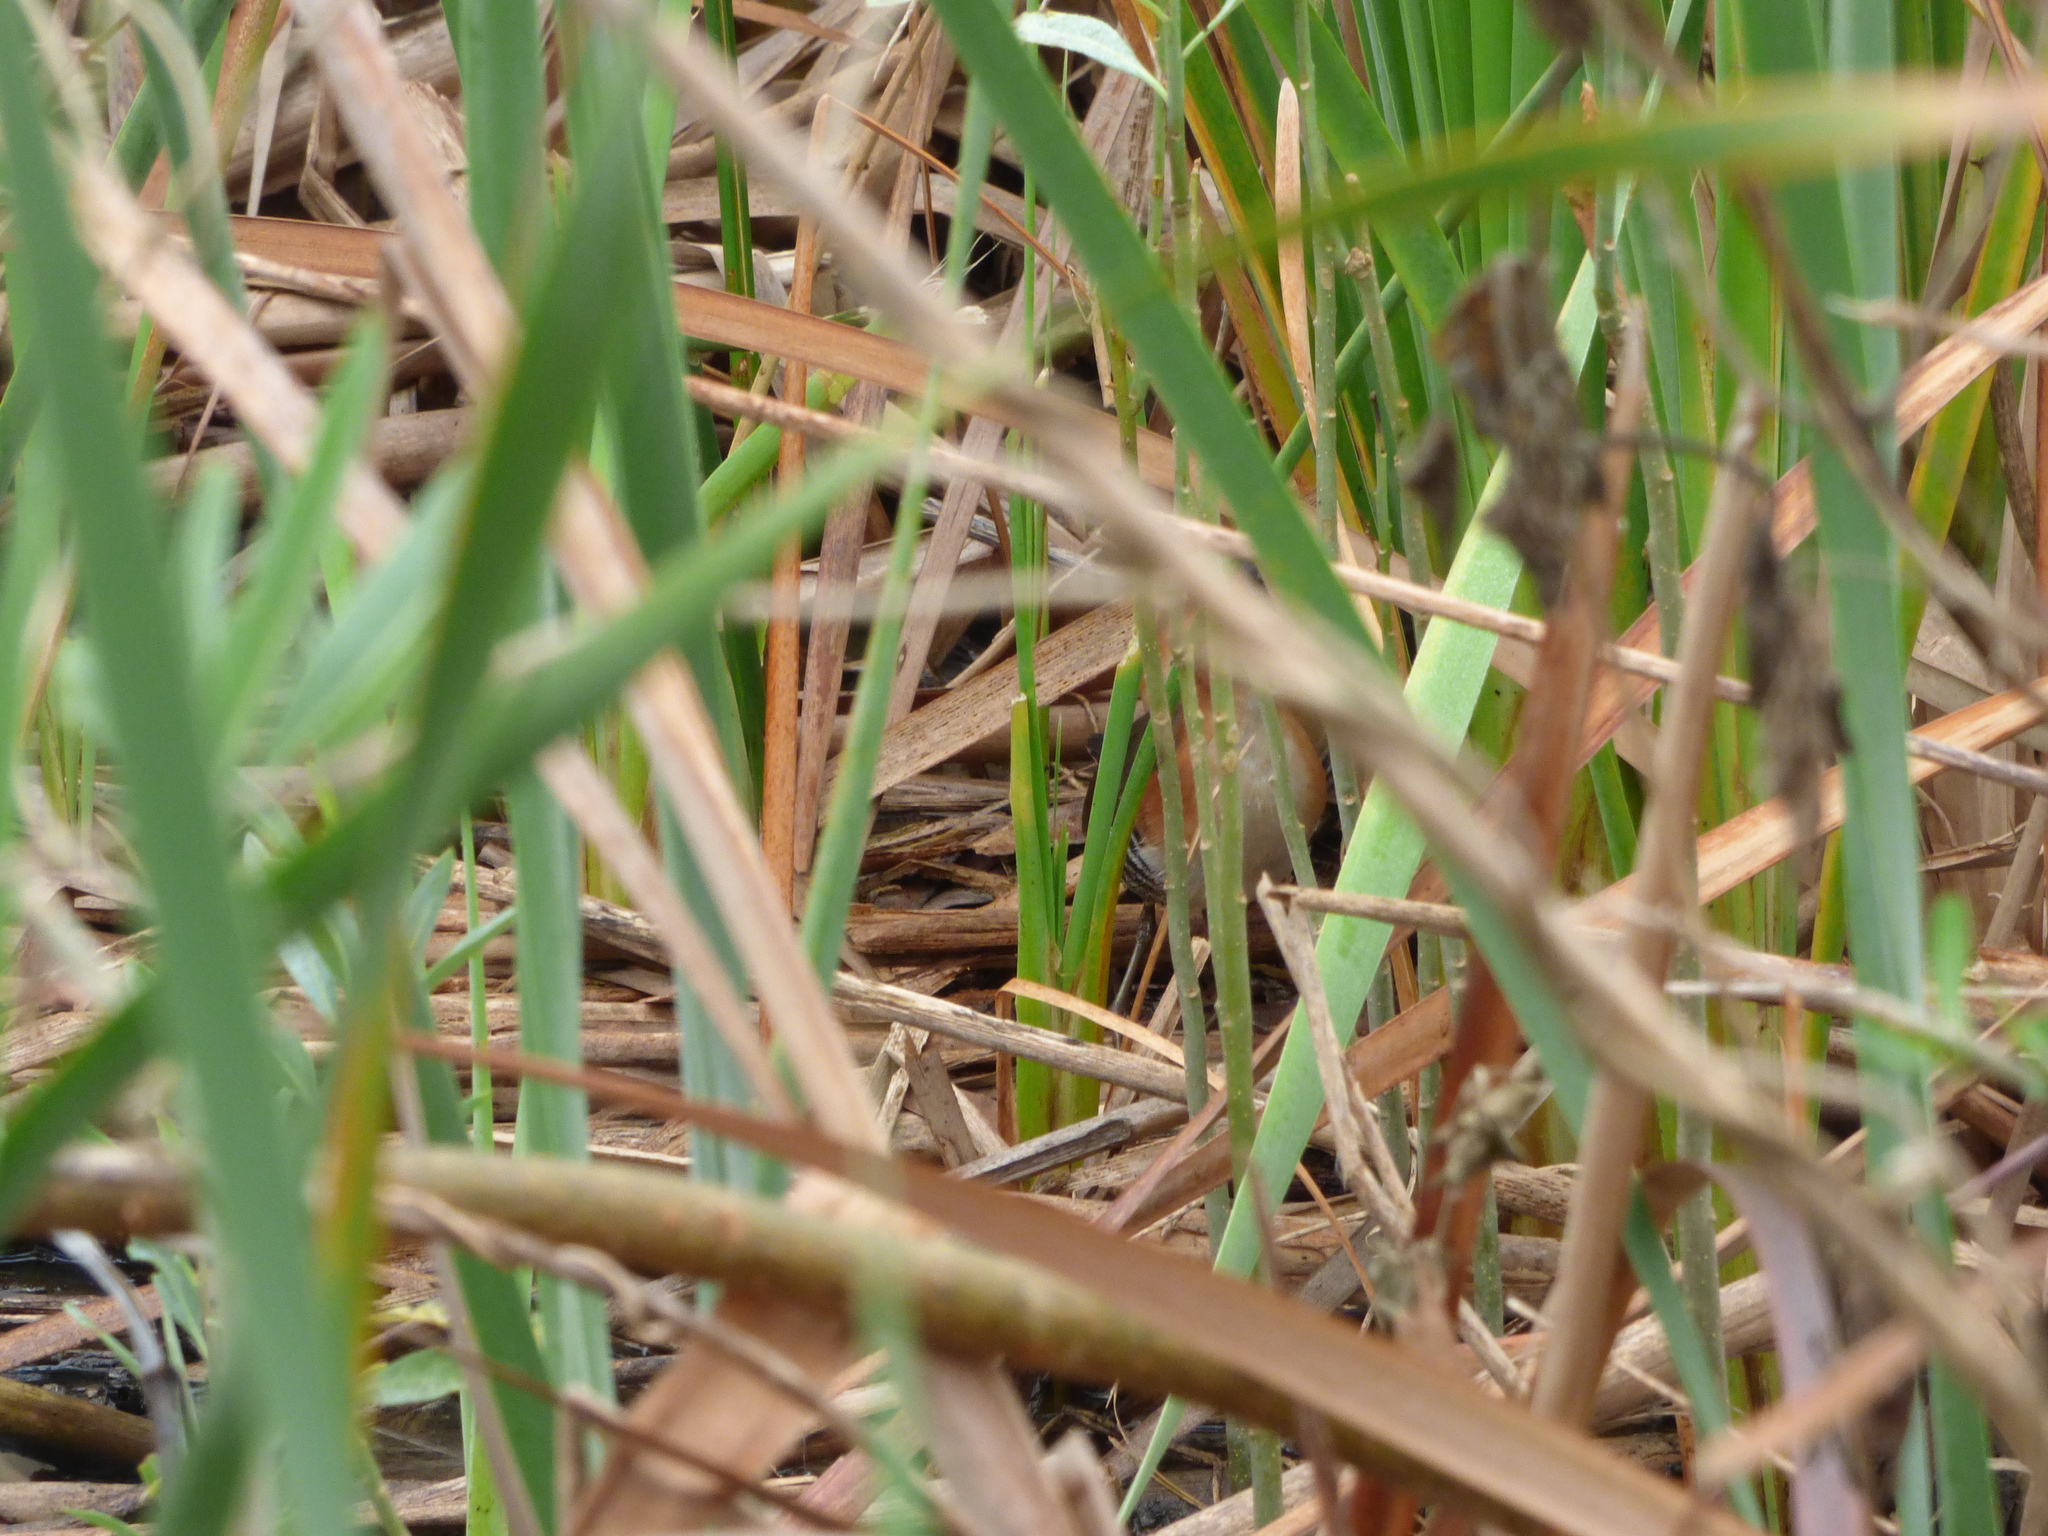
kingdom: Animalia
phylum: Chordata
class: Aves
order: Gruiformes
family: Rallidae
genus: Laterallus
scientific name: Laterallus melanophaius
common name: Rufous-sided crake
